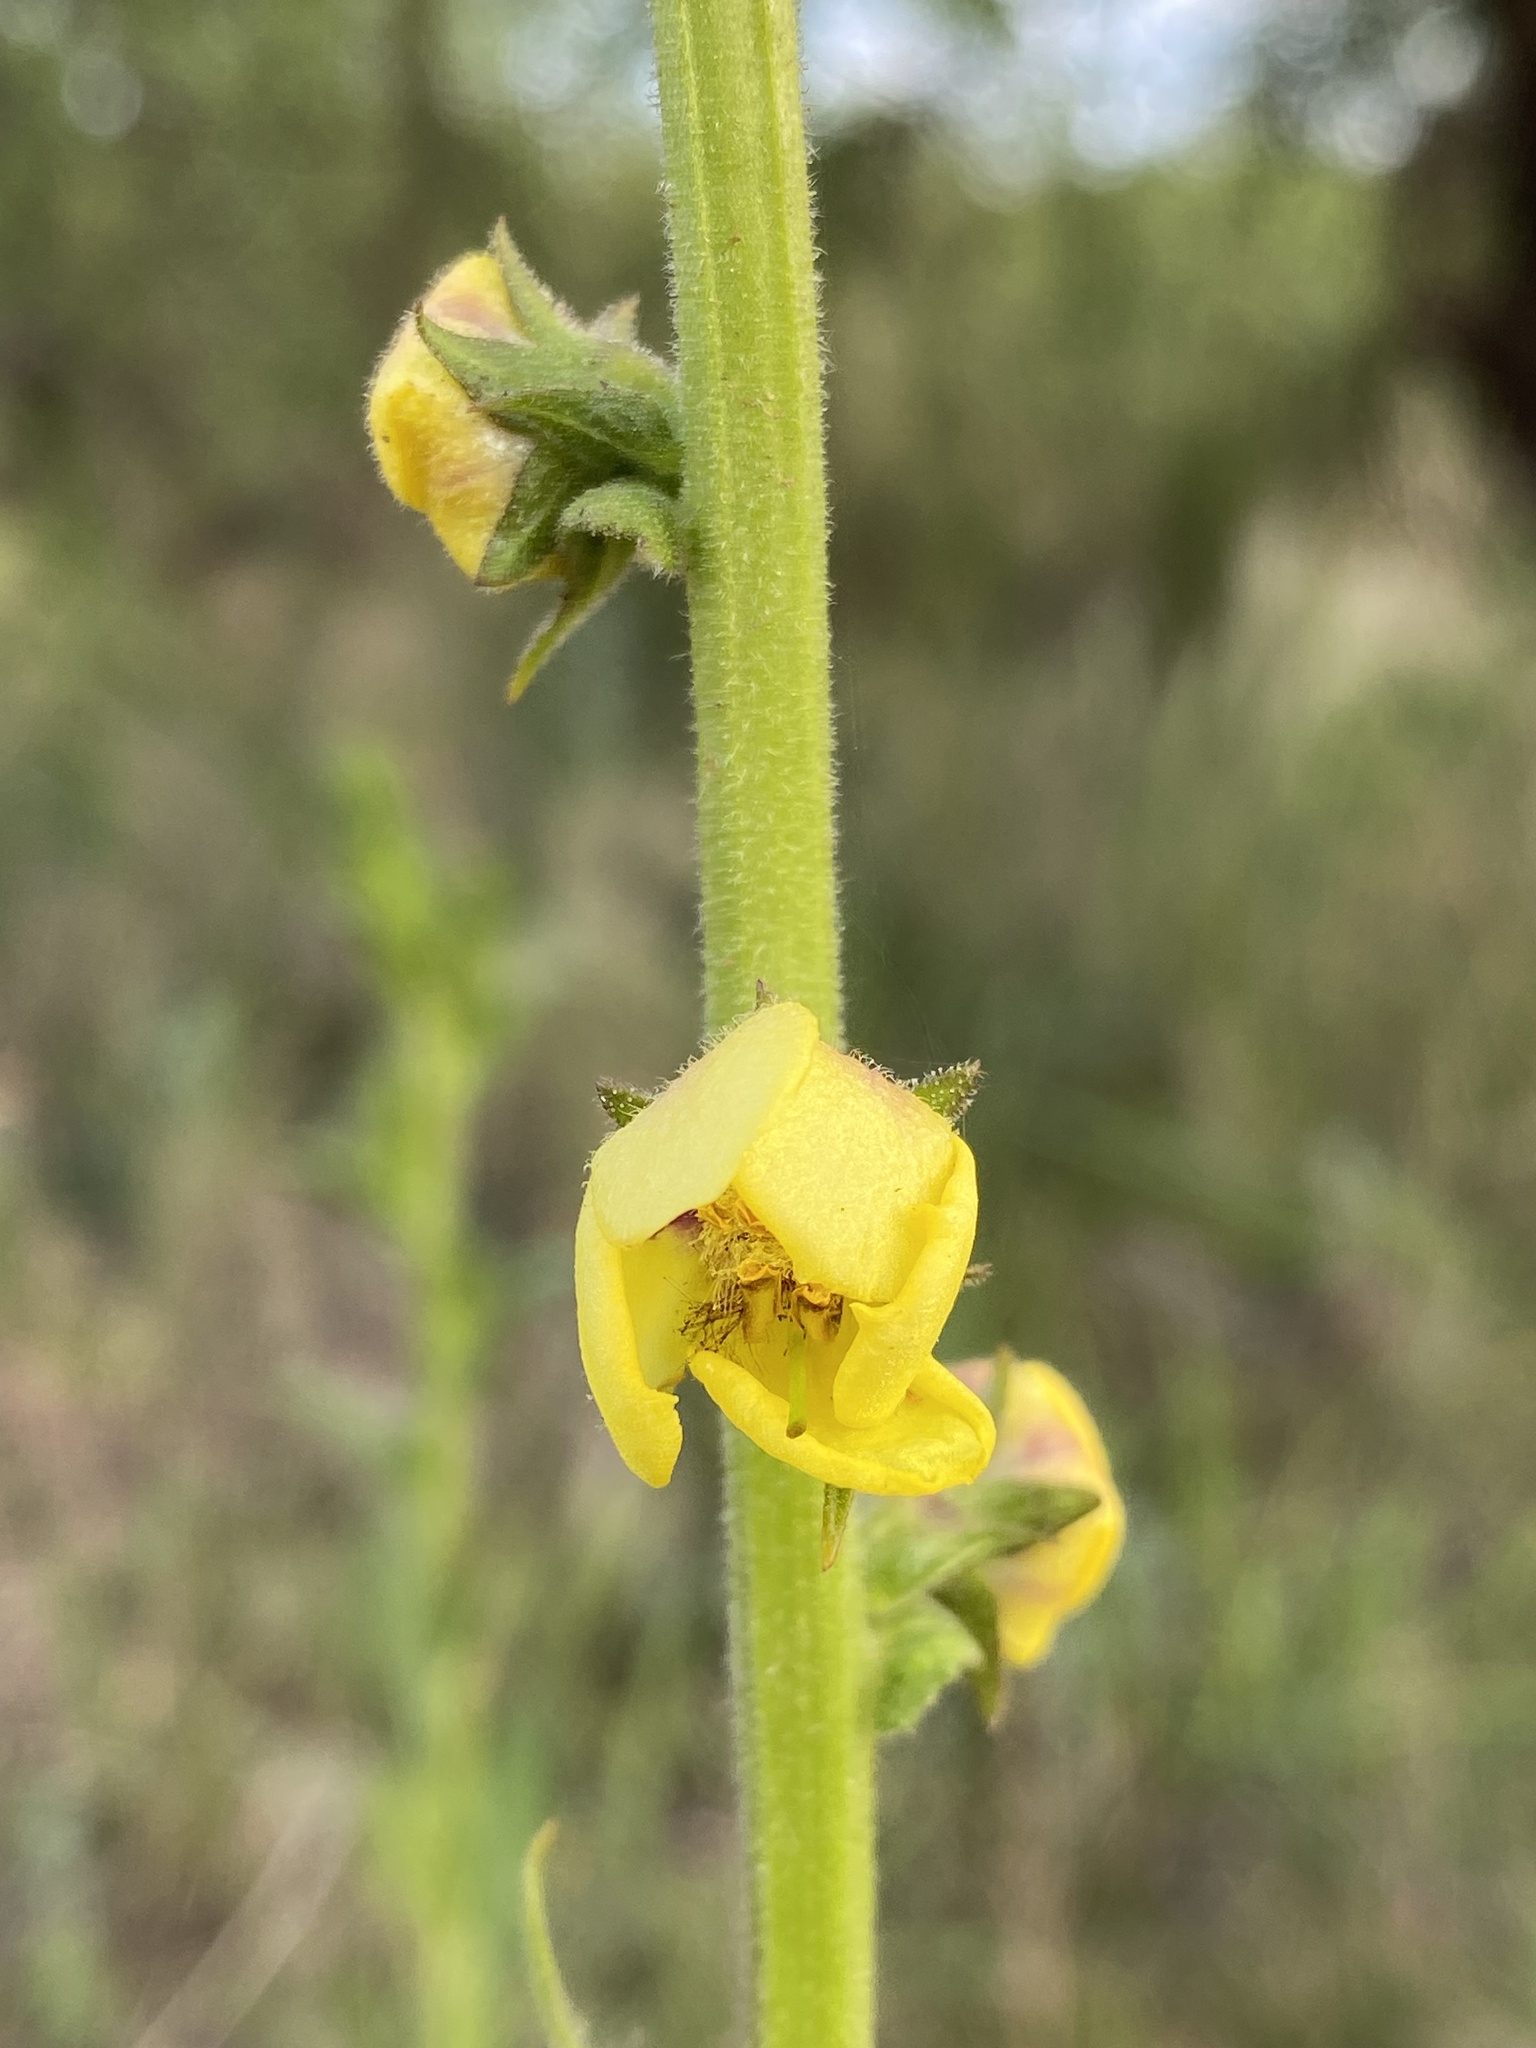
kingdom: Plantae
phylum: Tracheophyta
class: Magnoliopsida
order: Lamiales
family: Scrophulariaceae
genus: Verbascum
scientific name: Verbascum virgatum
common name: Twiggy mullein
